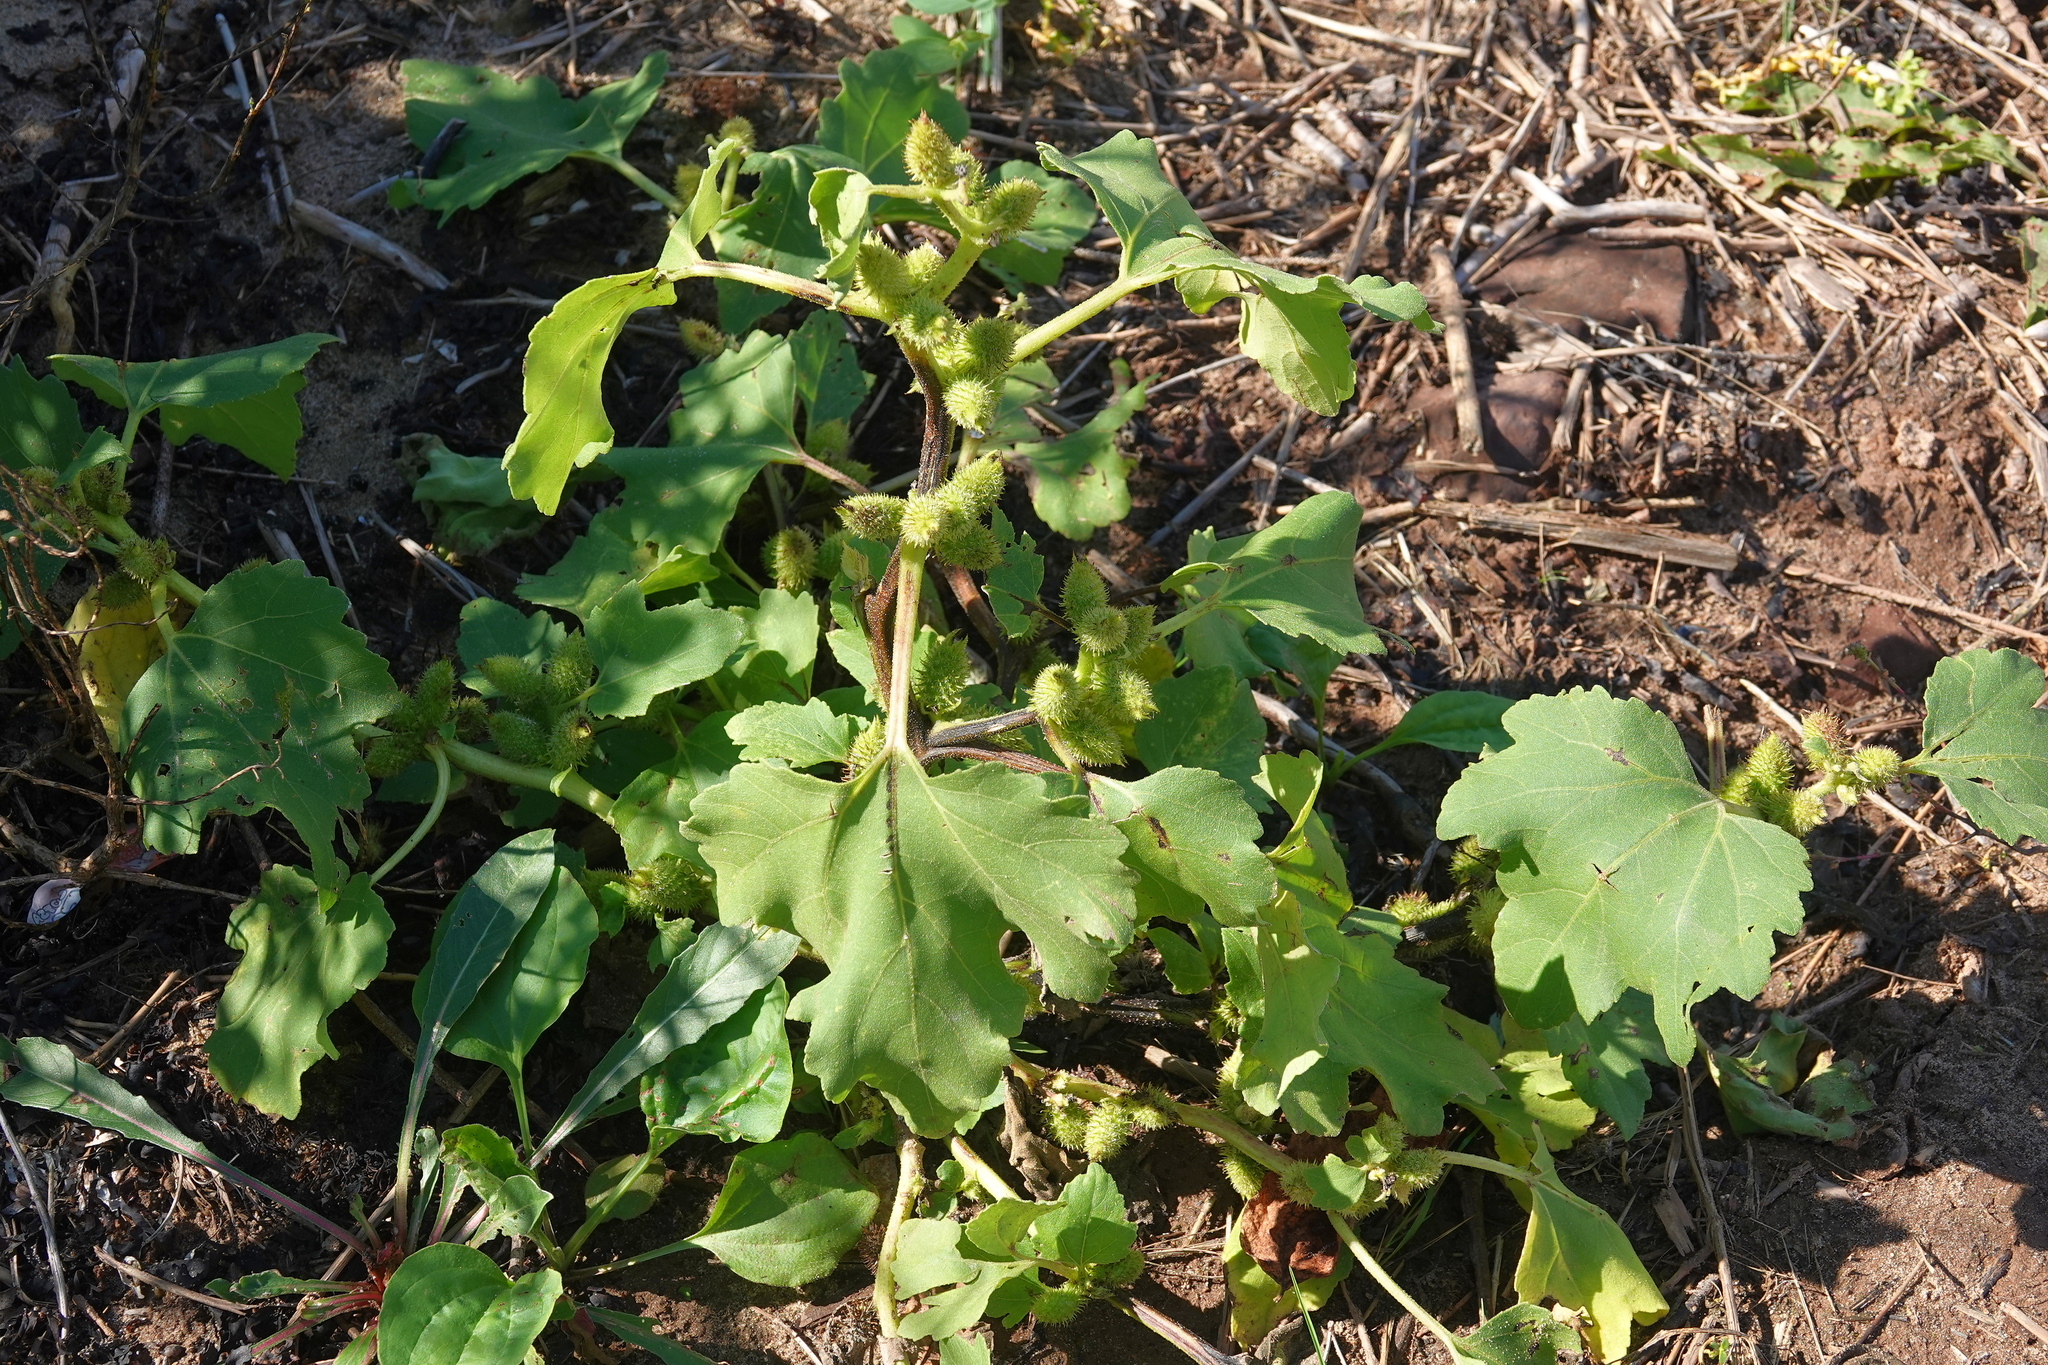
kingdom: Plantae
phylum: Tracheophyta
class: Magnoliopsida
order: Asterales
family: Asteraceae
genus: Xanthium
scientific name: Xanthium orientale
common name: Californian burr
